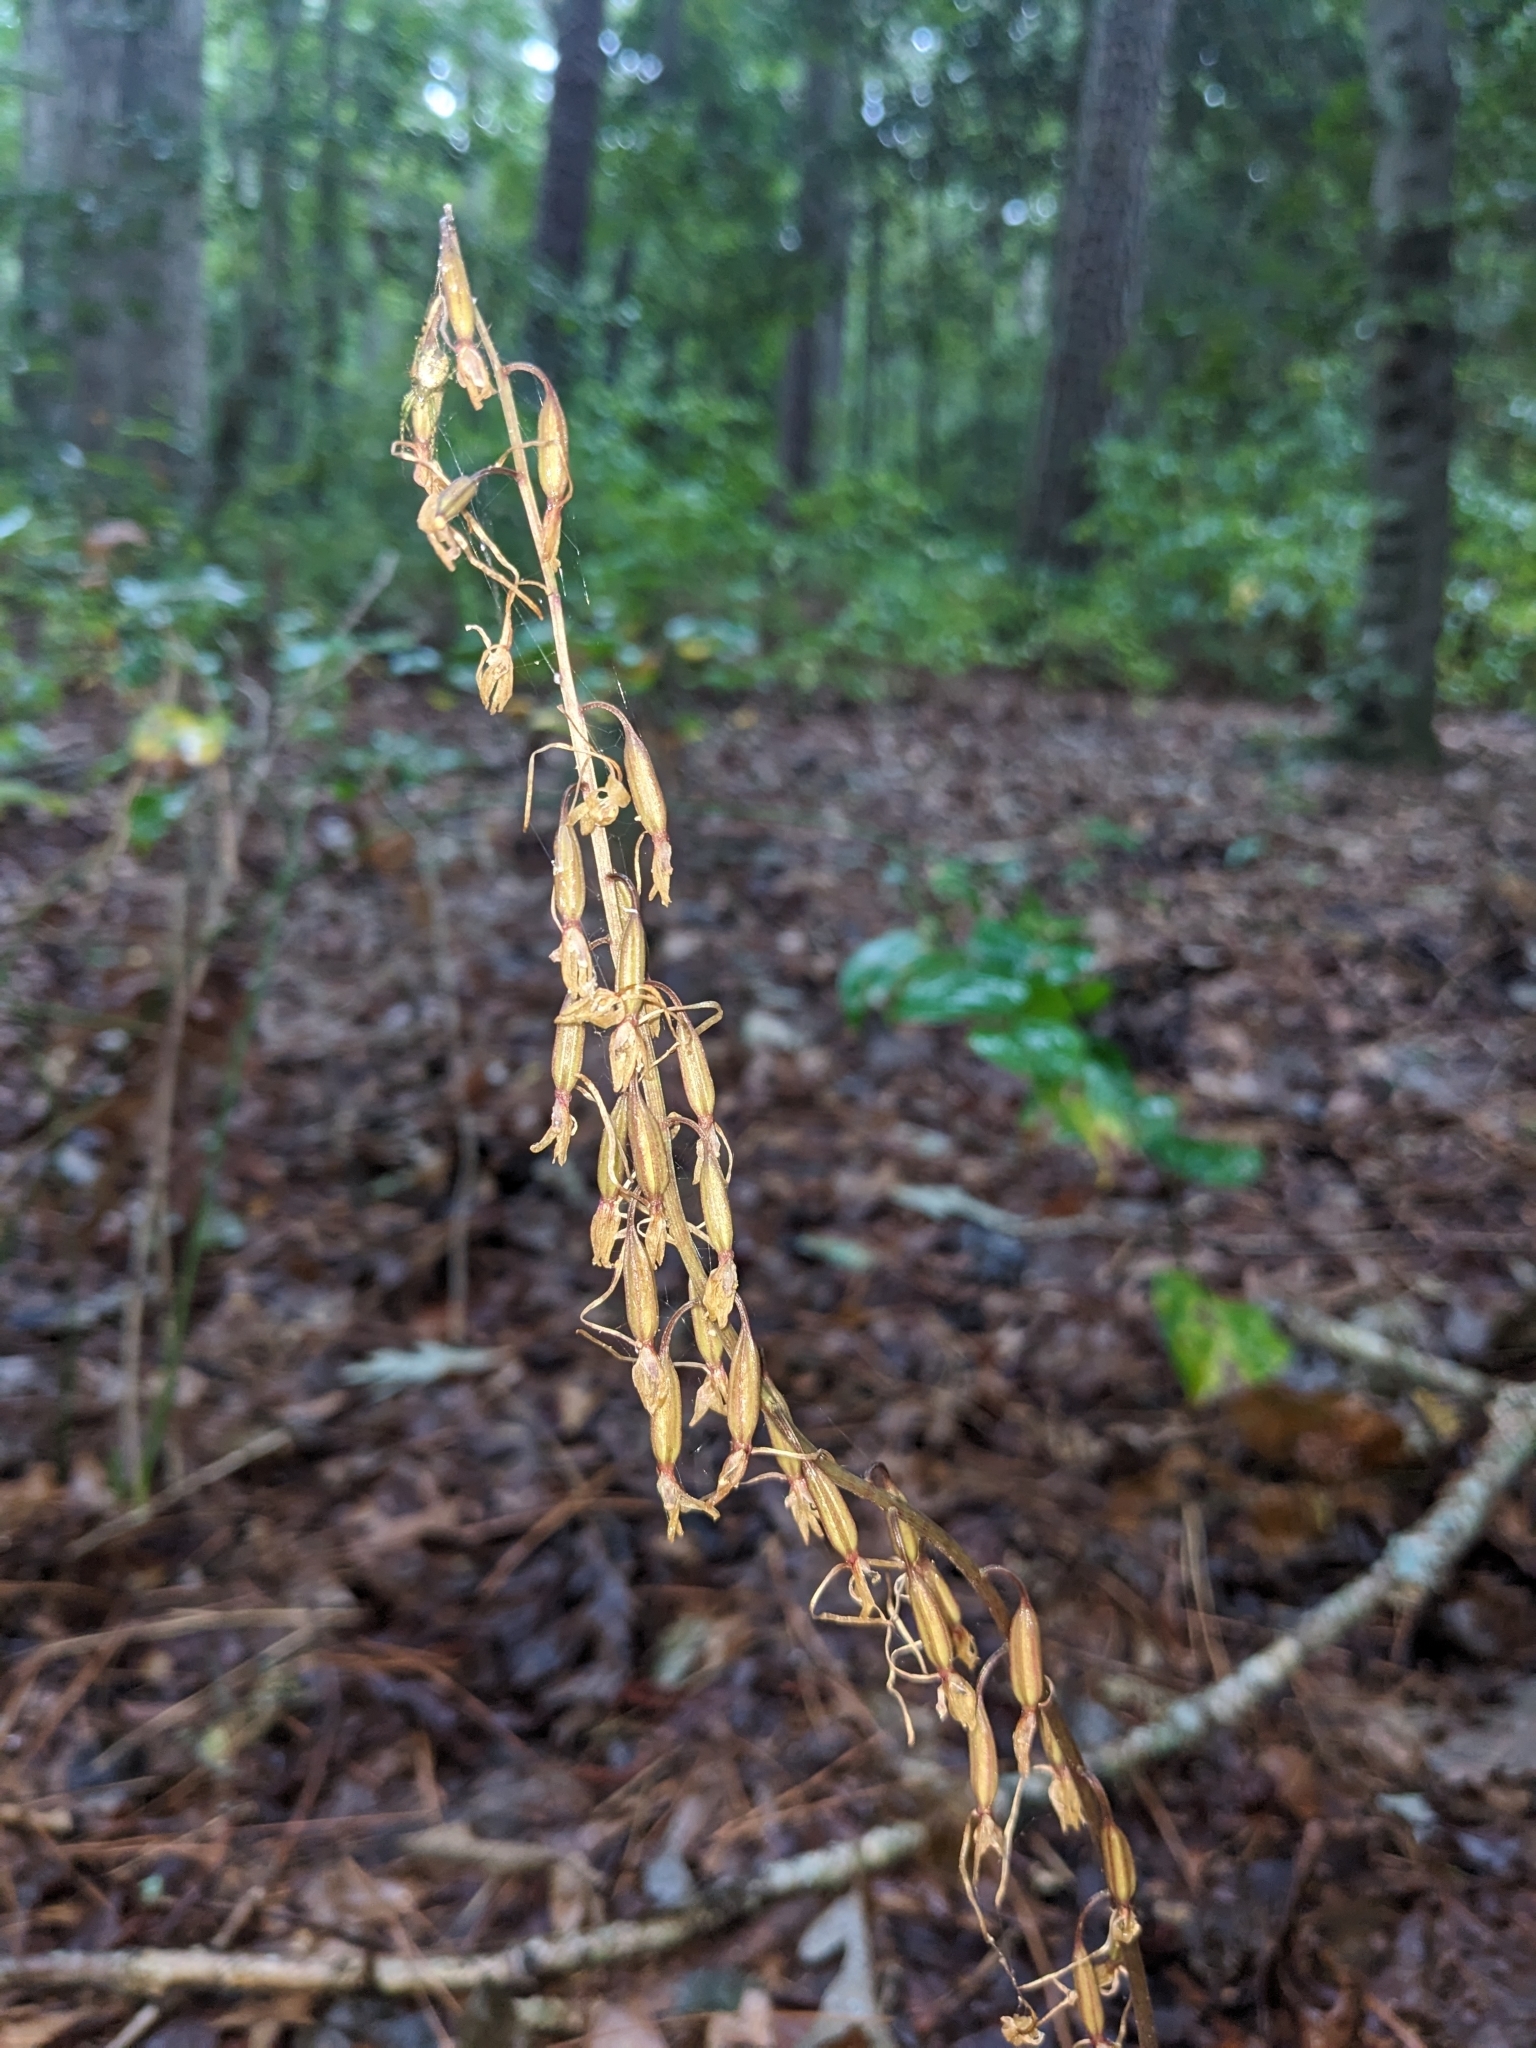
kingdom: Plantae
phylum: Tracheophyta
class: Liliopsida
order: Asparagales
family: Orchidaceae
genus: Tipularia
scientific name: Tipularia discolor
